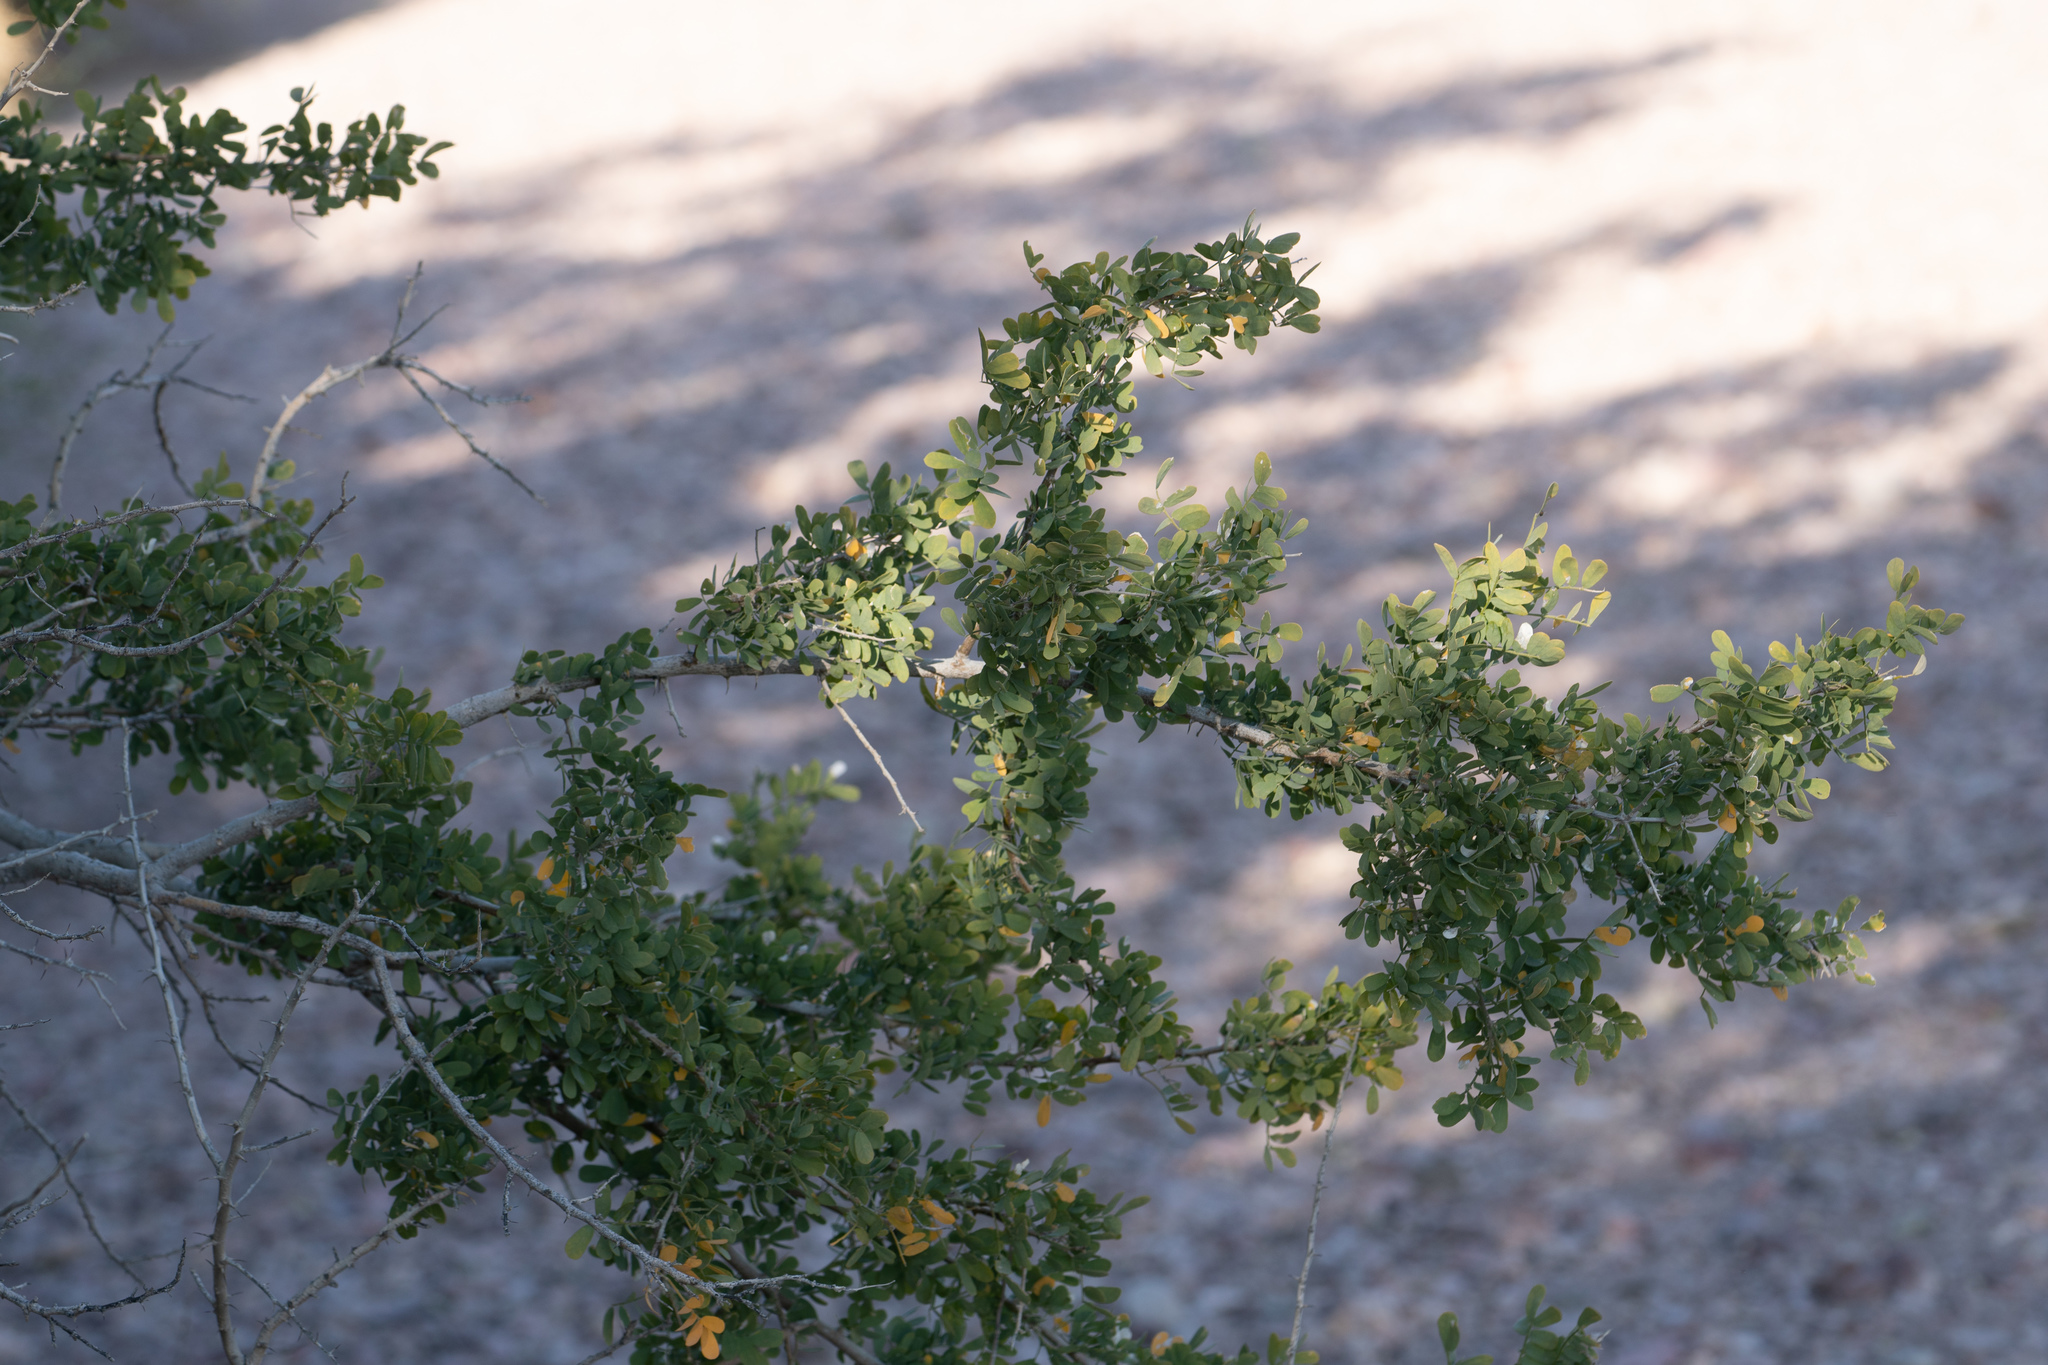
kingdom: Plantae
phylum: Tracheophyta
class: Magnoliopsida
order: Zygophyllales
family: Zygophyllaceae
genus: Larrea
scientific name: Larrea tridentata
